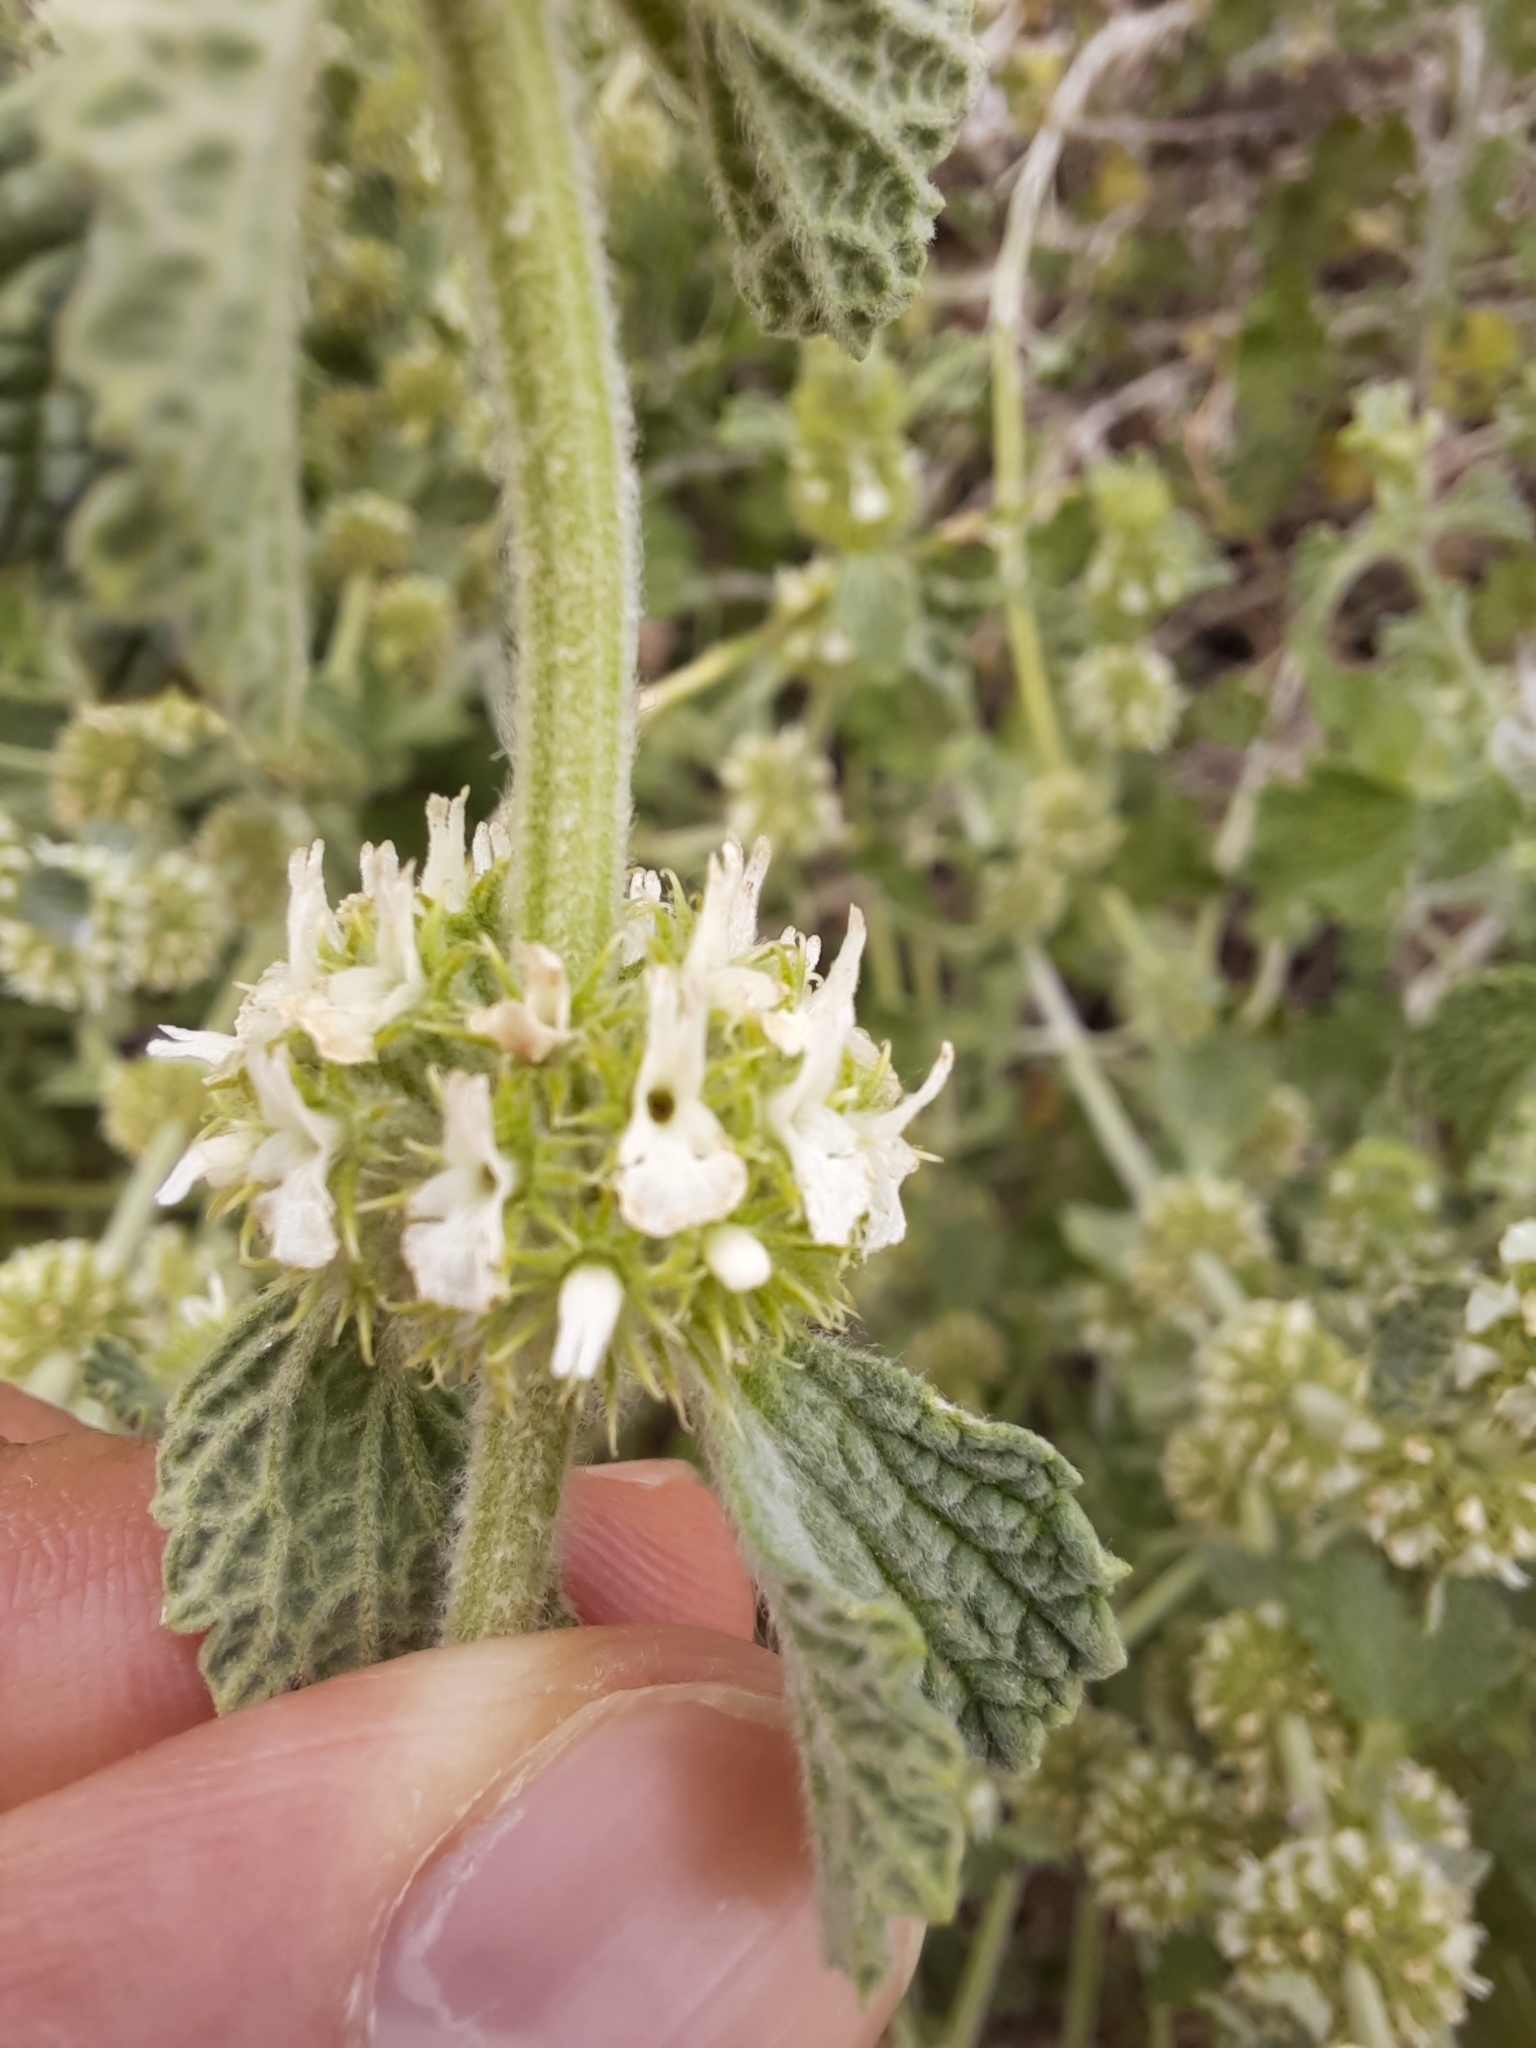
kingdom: Plantae
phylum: Tracheophyta
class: Magnoliopsida
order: Lamiales
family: Lamiaceae
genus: Marrubium
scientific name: Marrubium vulgare
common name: Horehound
